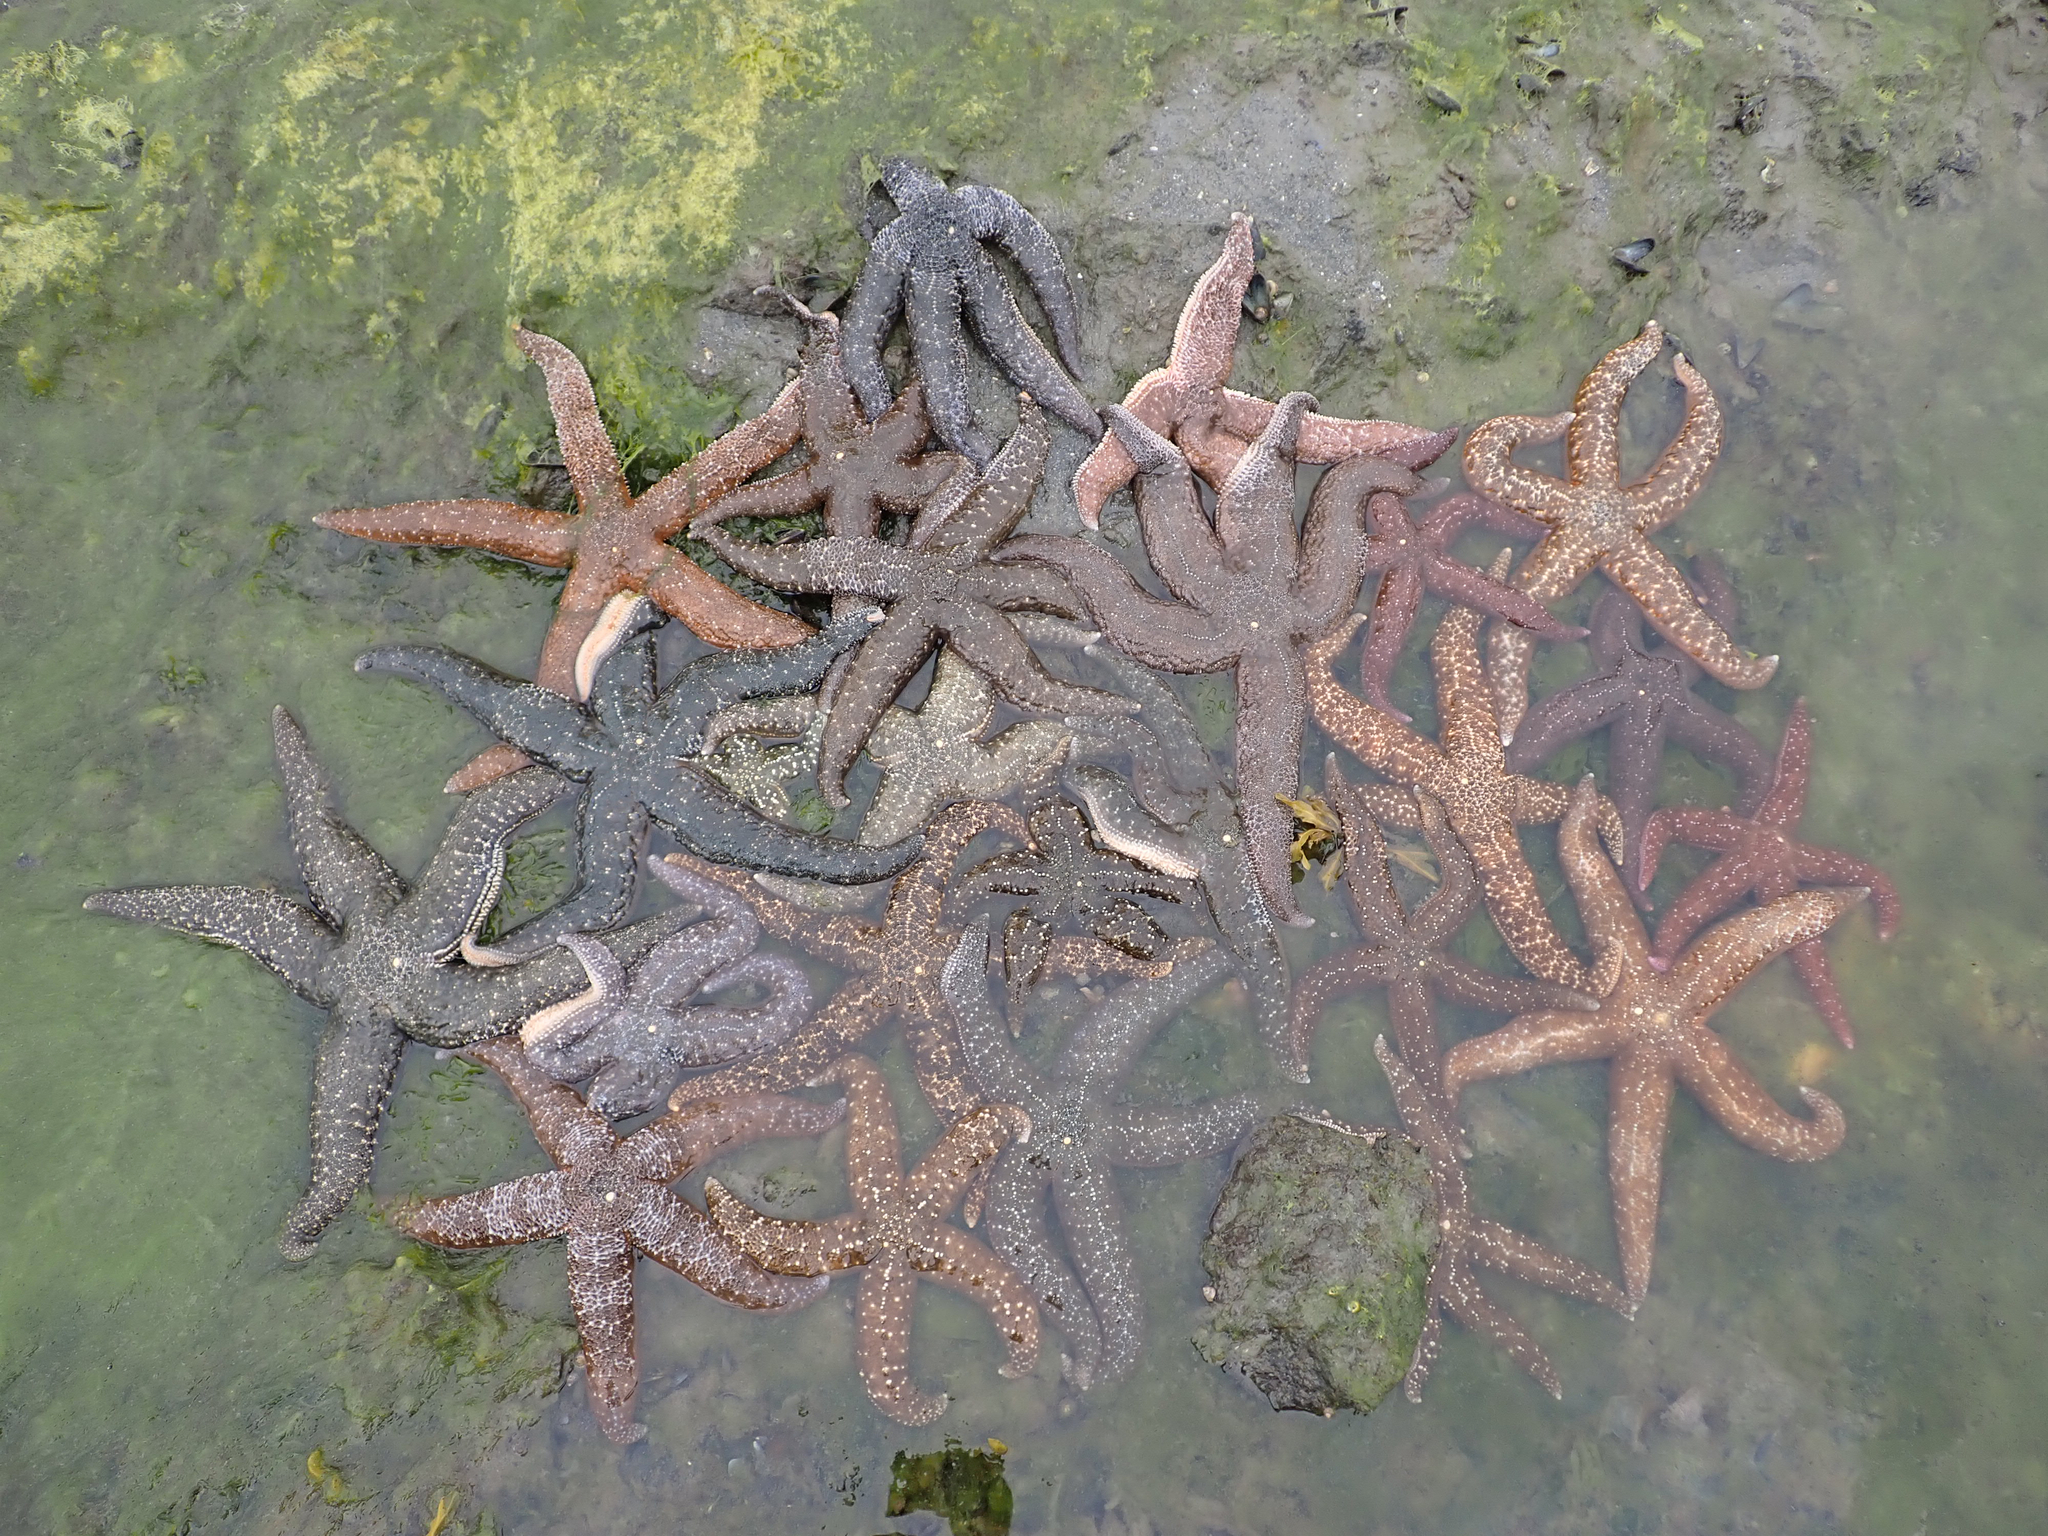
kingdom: Animalia
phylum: Echinodermata
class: Asteroidea
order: Forcipulatida
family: Asteriidae
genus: Evasterias
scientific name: Evasterias troschelii
